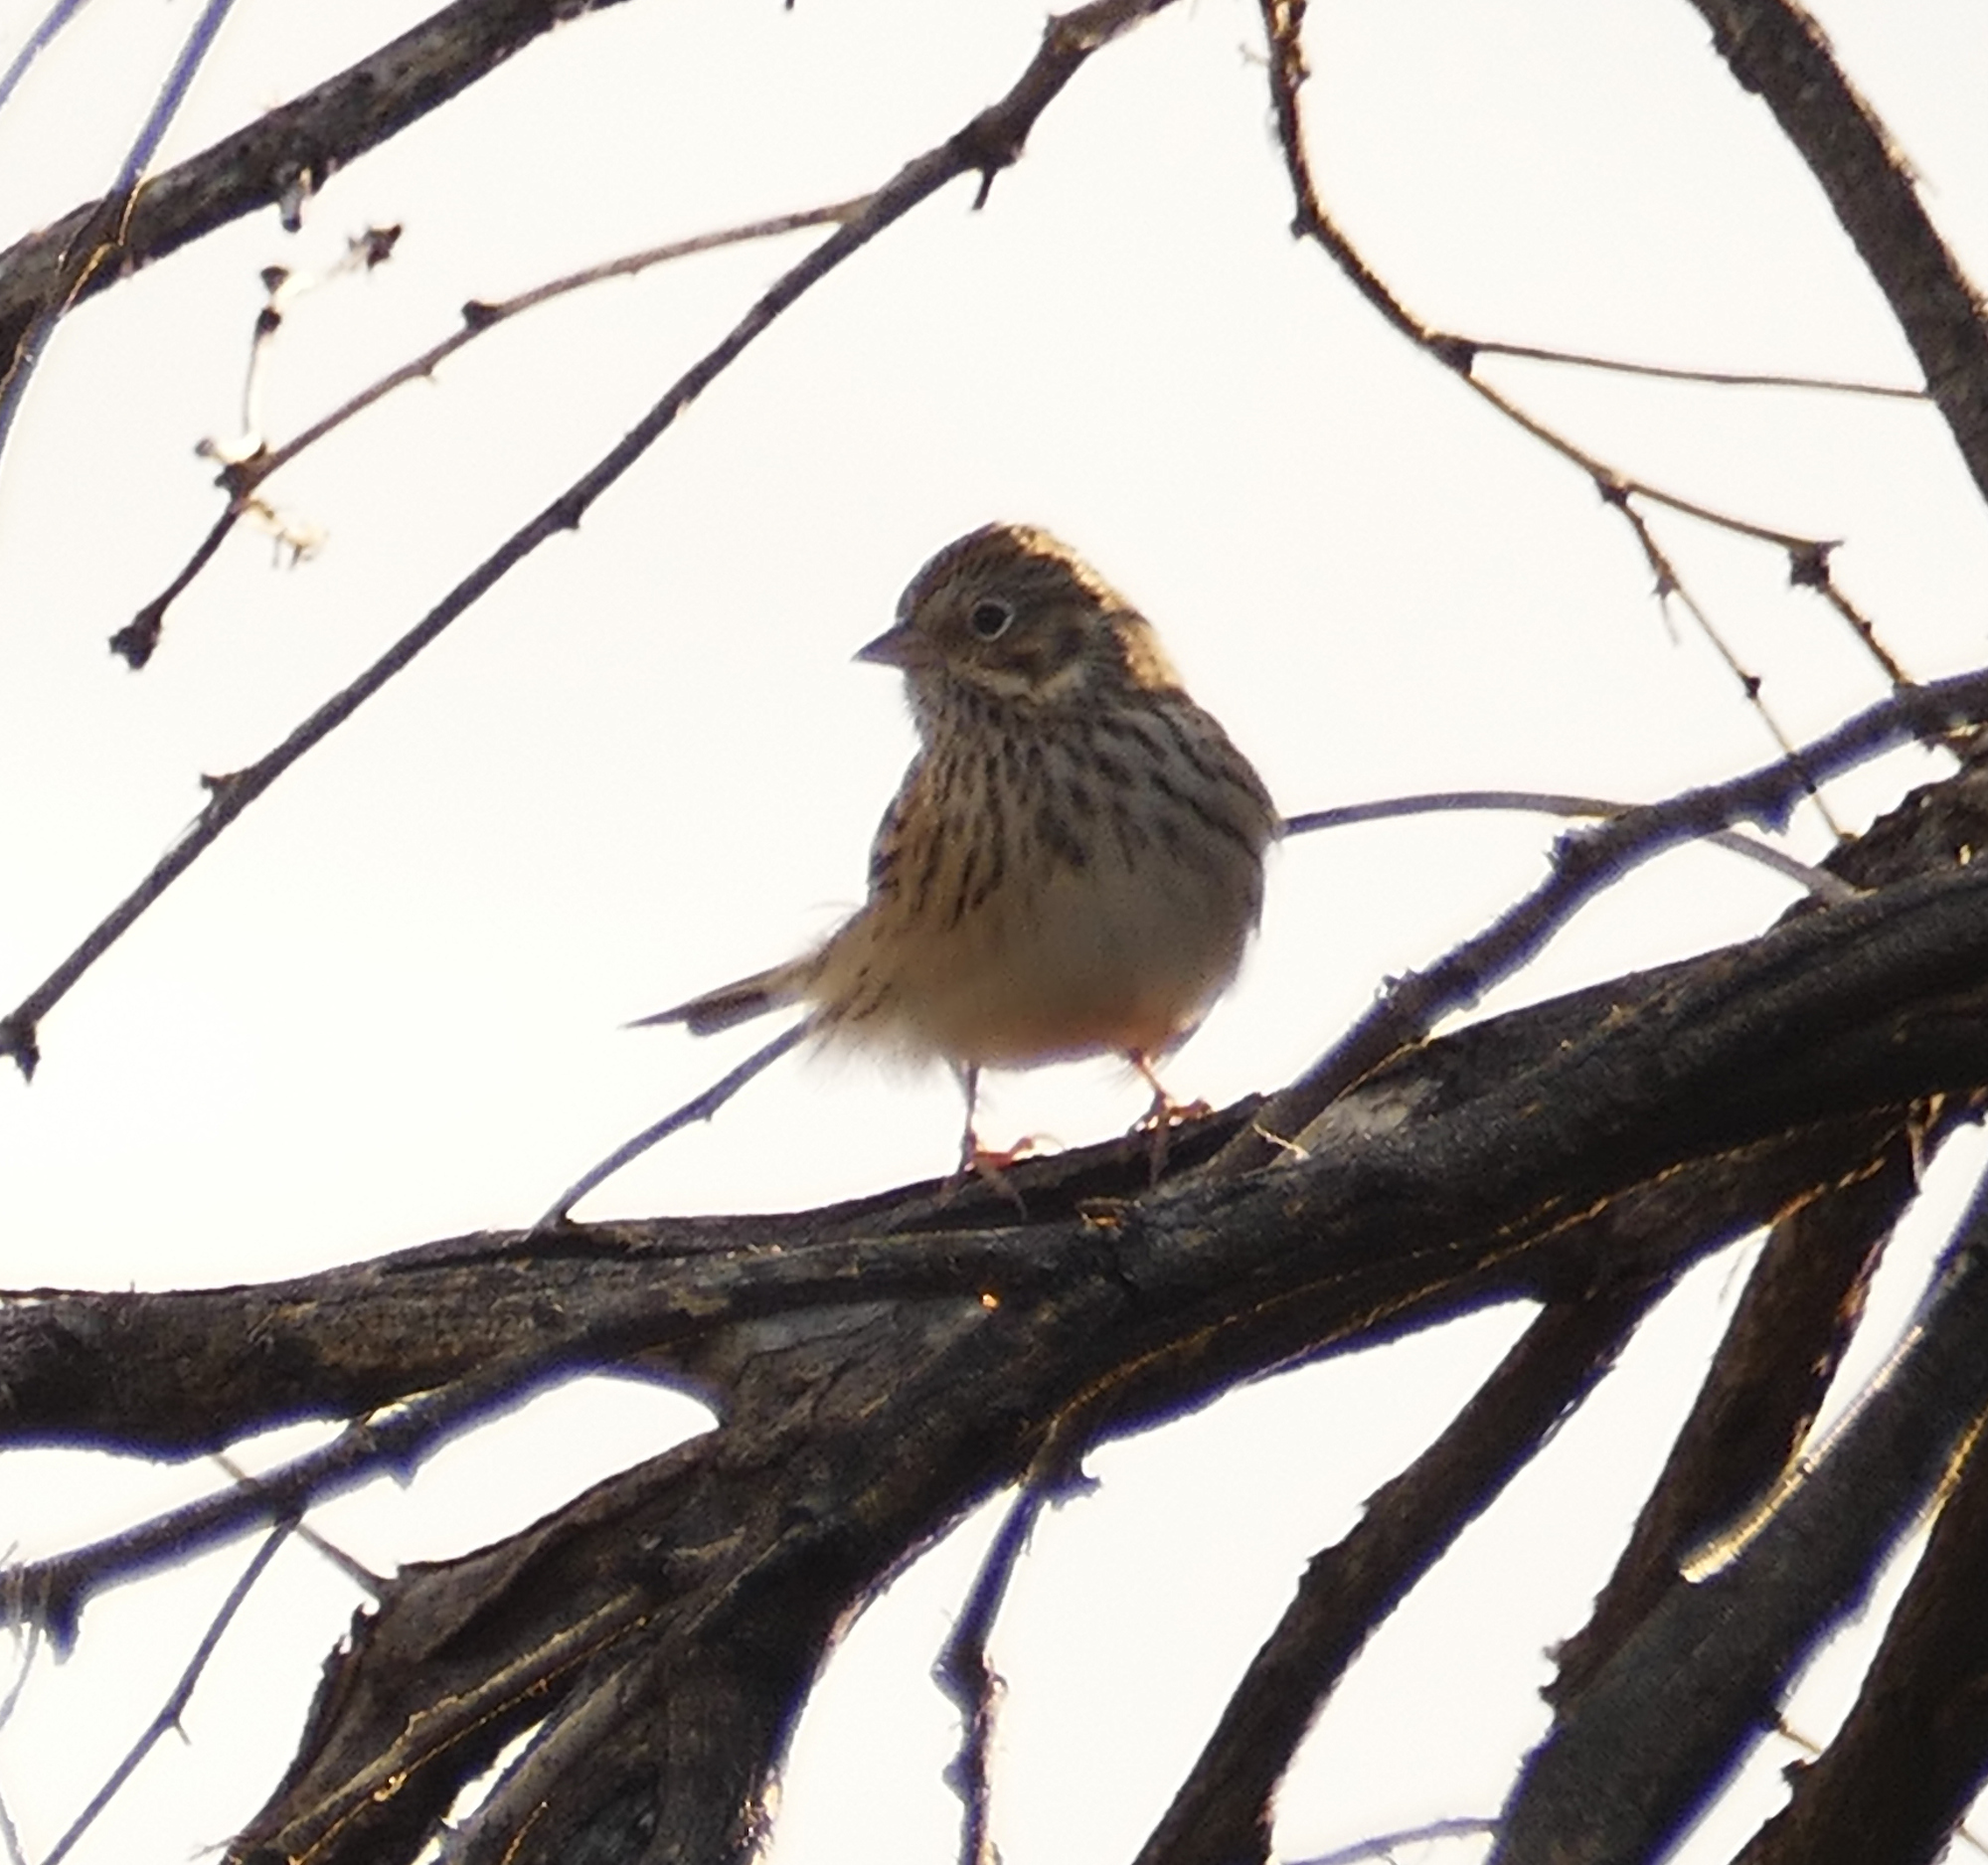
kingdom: Animalia
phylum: Chordata
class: Aves
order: Passeriformes
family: Passerellidae
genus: Pooecetes
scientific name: Pooecetes gramineus
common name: Vesper sparrow
